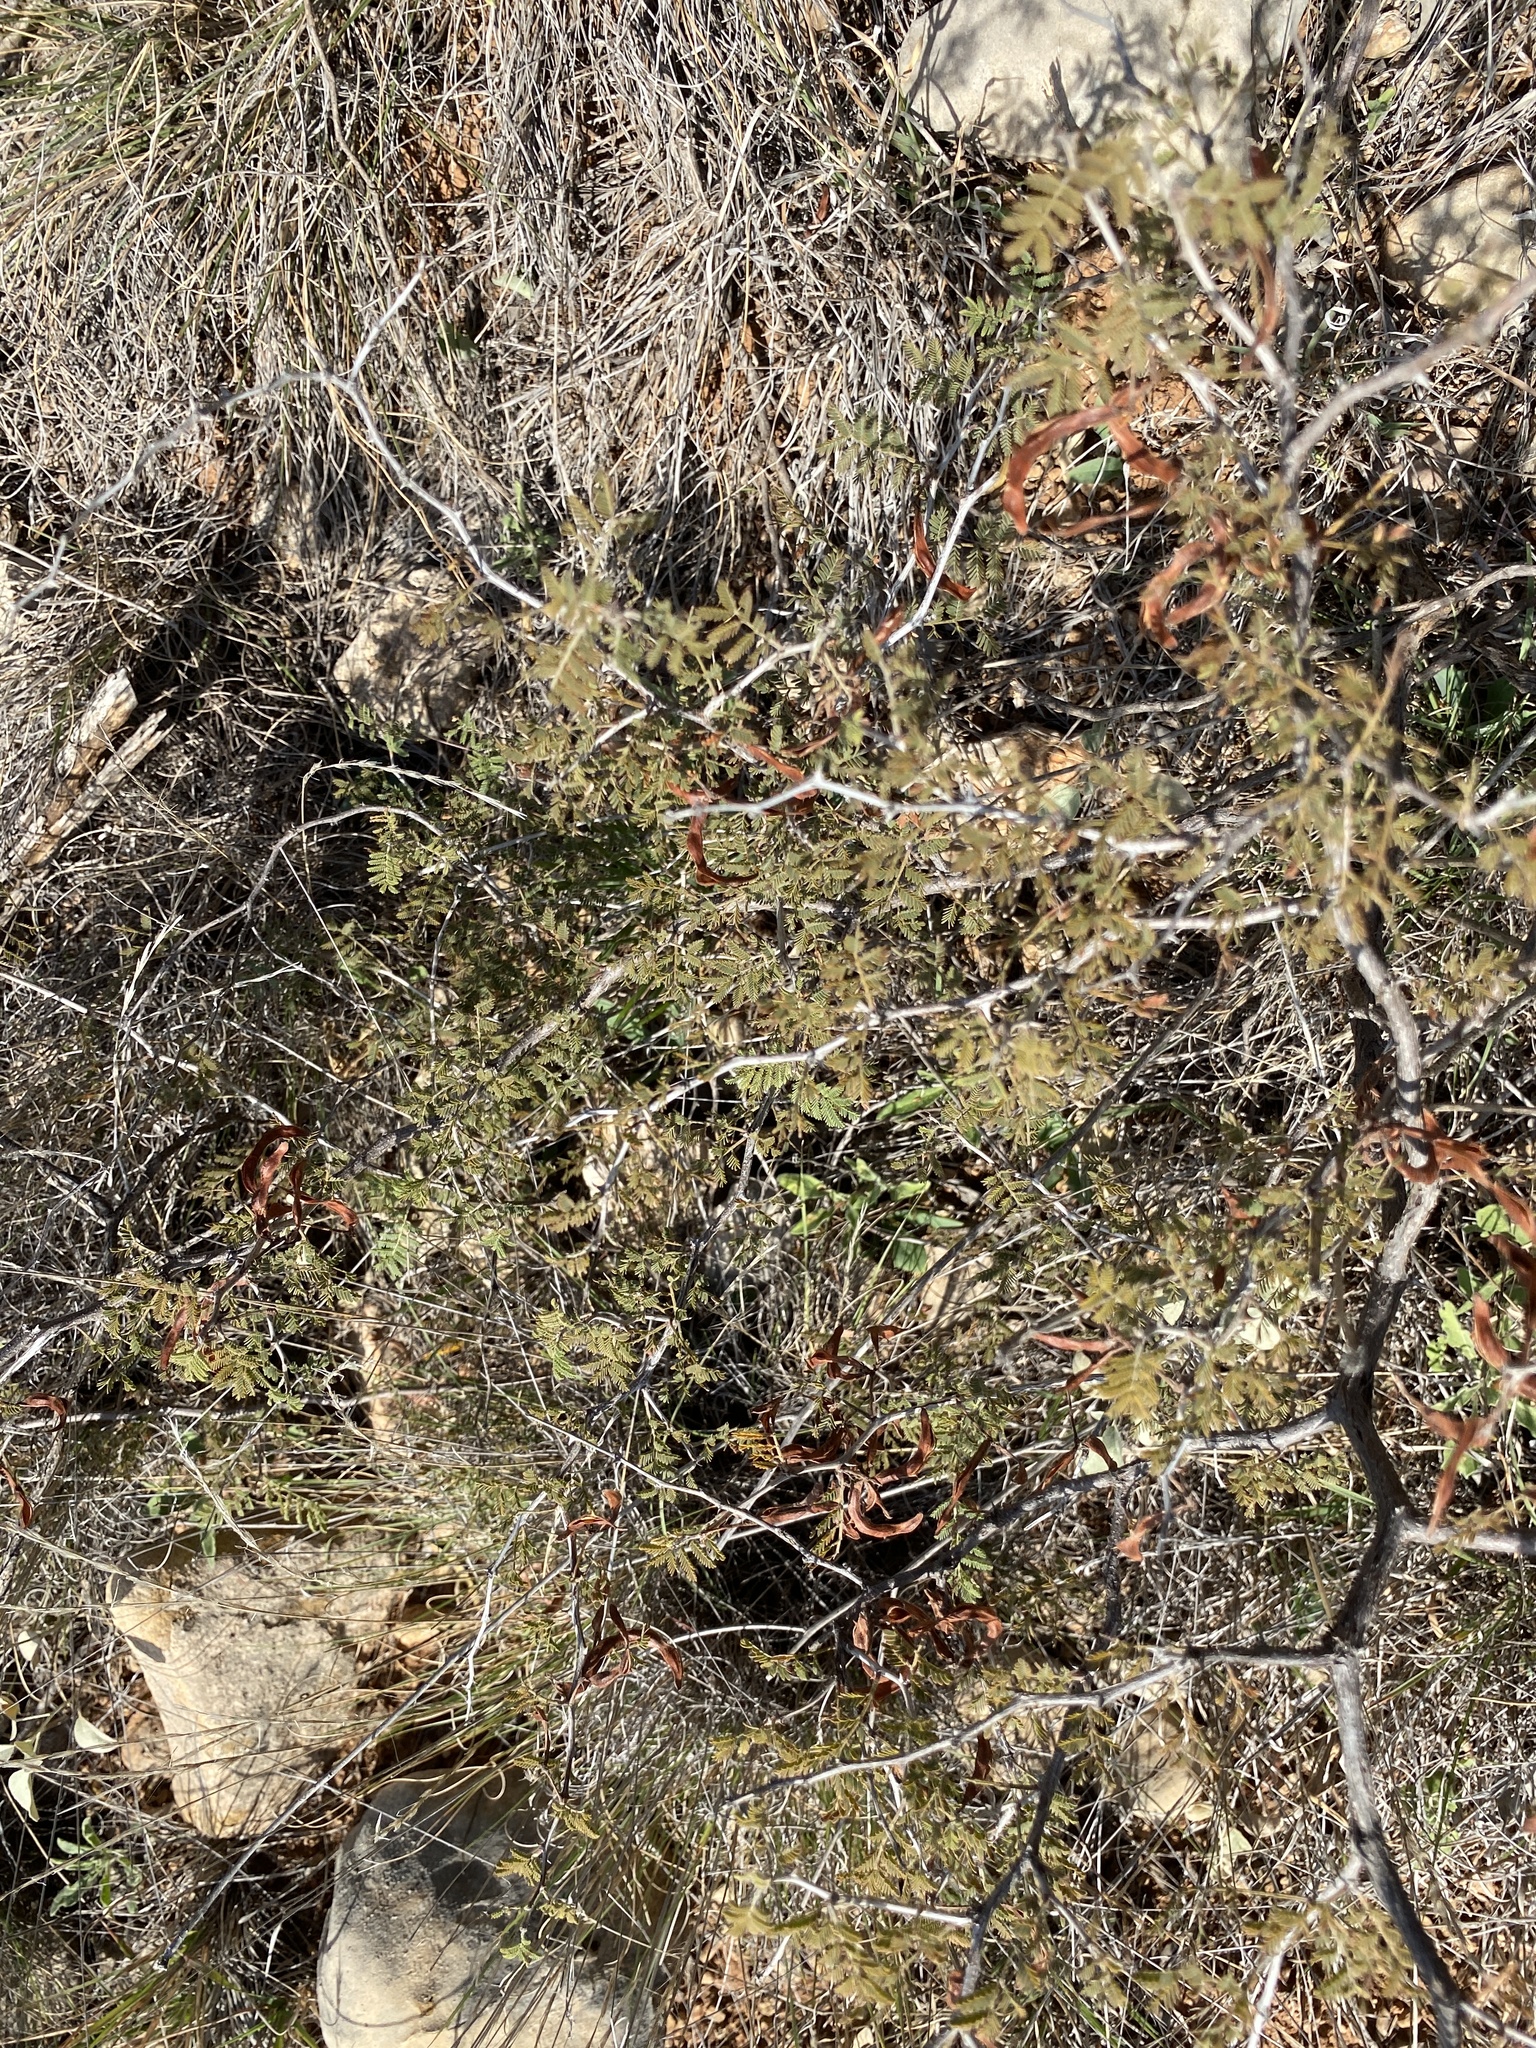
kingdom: Plantae
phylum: Tracheophyta
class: Magnoliopsida
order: Fabales
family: Fabaceae
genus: Mimosa
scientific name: Mimosa aculeaticarpa
